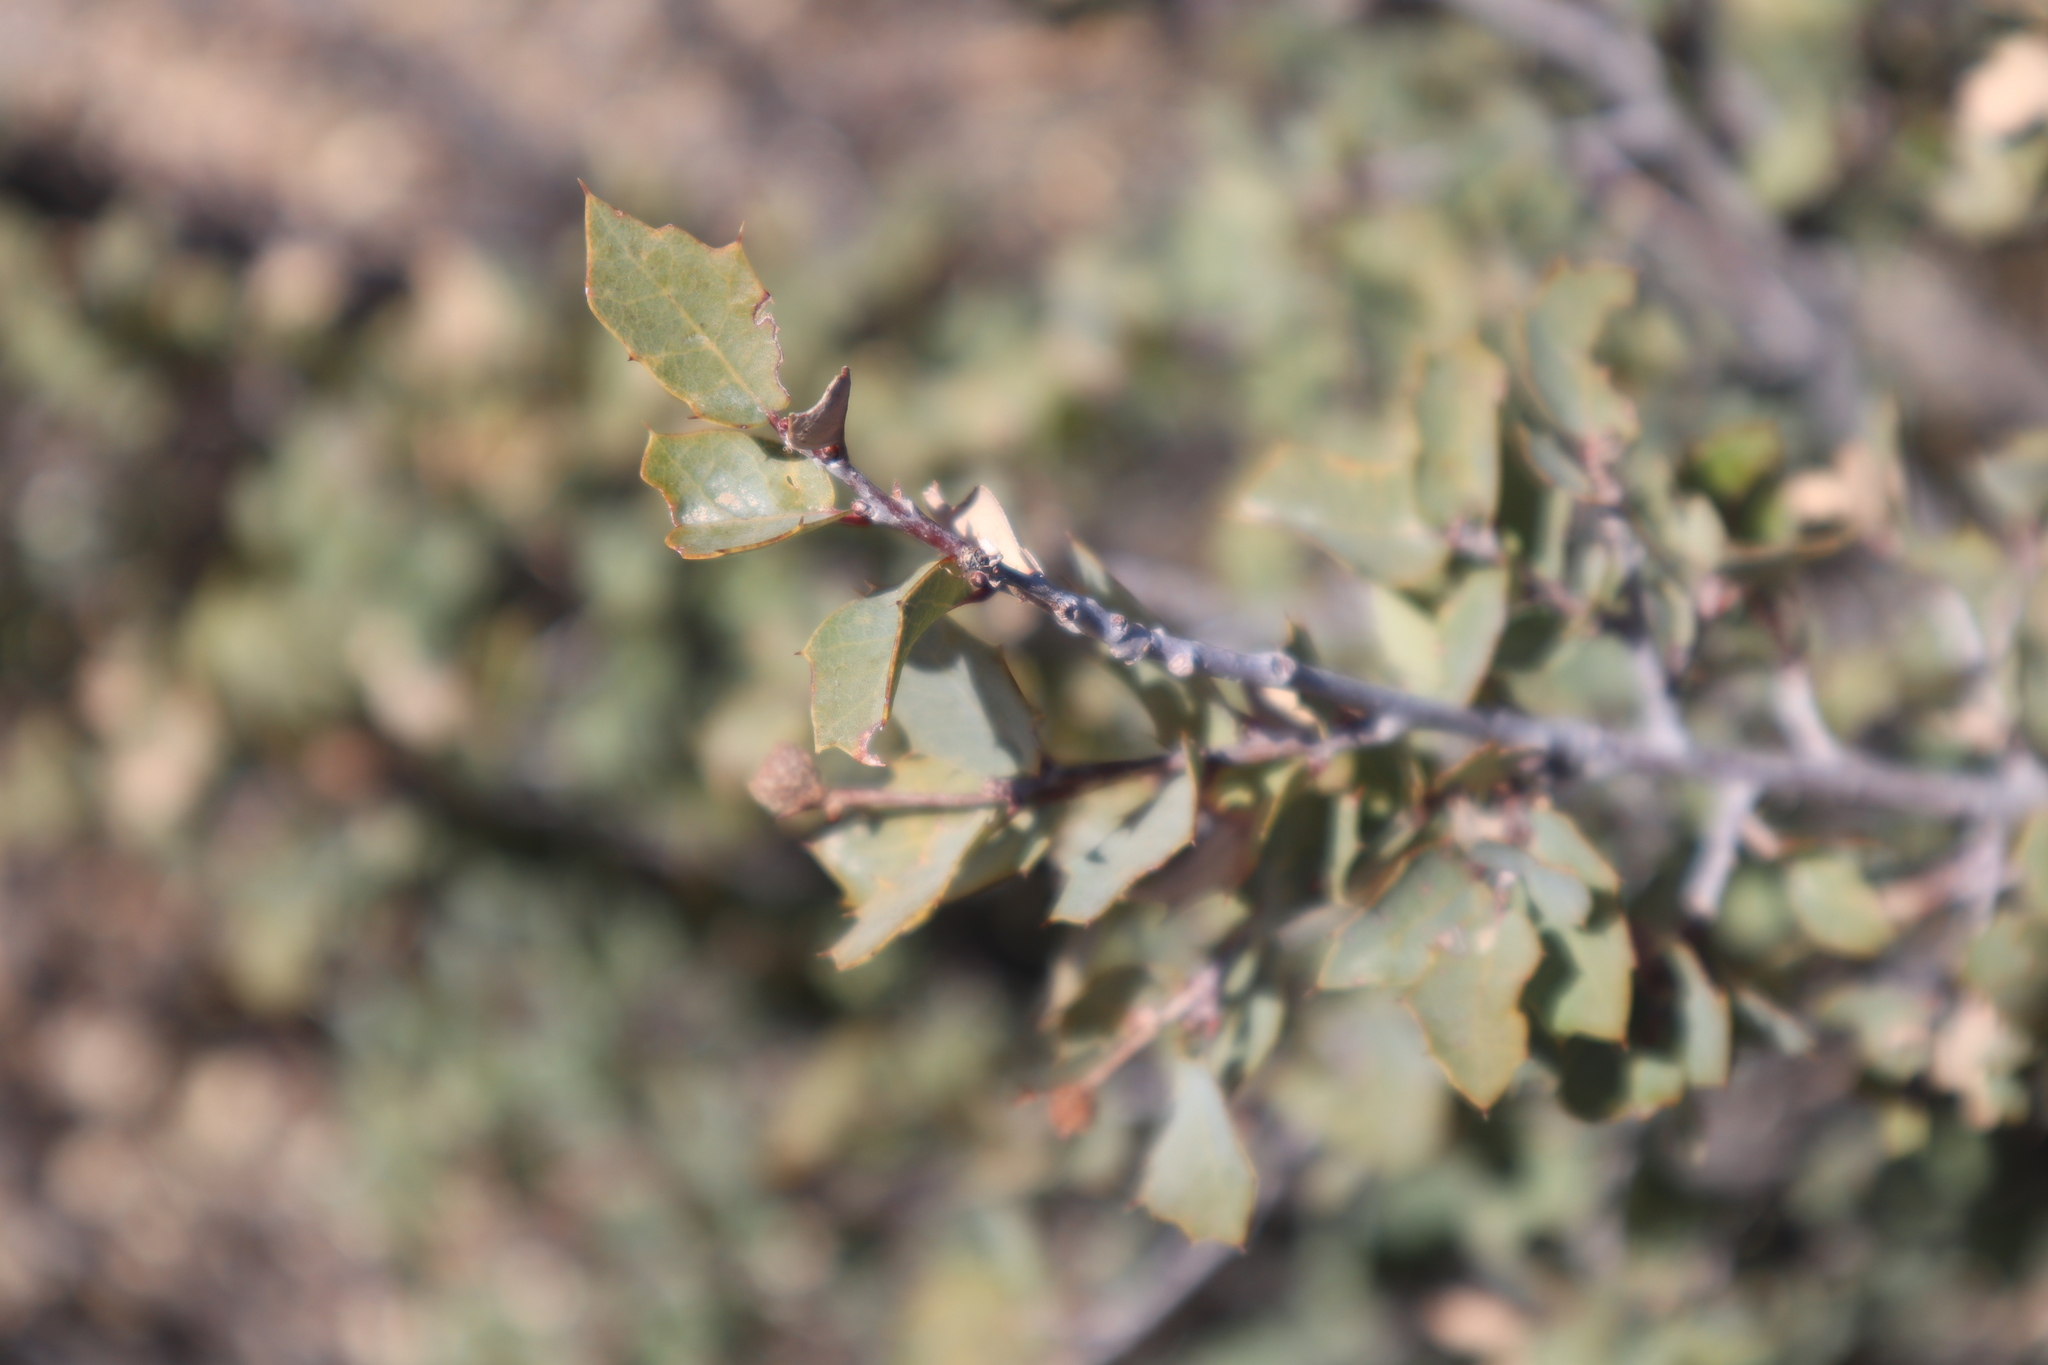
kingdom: Plantae
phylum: Tracheophyta
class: Magnoliopsida
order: Fagales
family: Fagaceae
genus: Quercus
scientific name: Quercus turbinella
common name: Sonoran scrub oak
